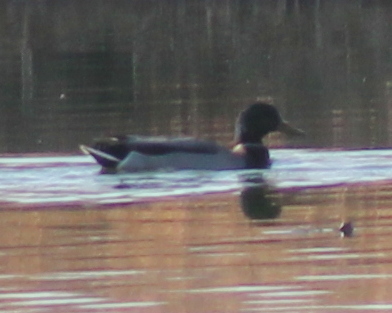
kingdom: Animalia
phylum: Chordata
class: Aves
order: Anseriformes
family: Anatidae
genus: Anas
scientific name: Anas platyrhynchos
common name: Mallard
